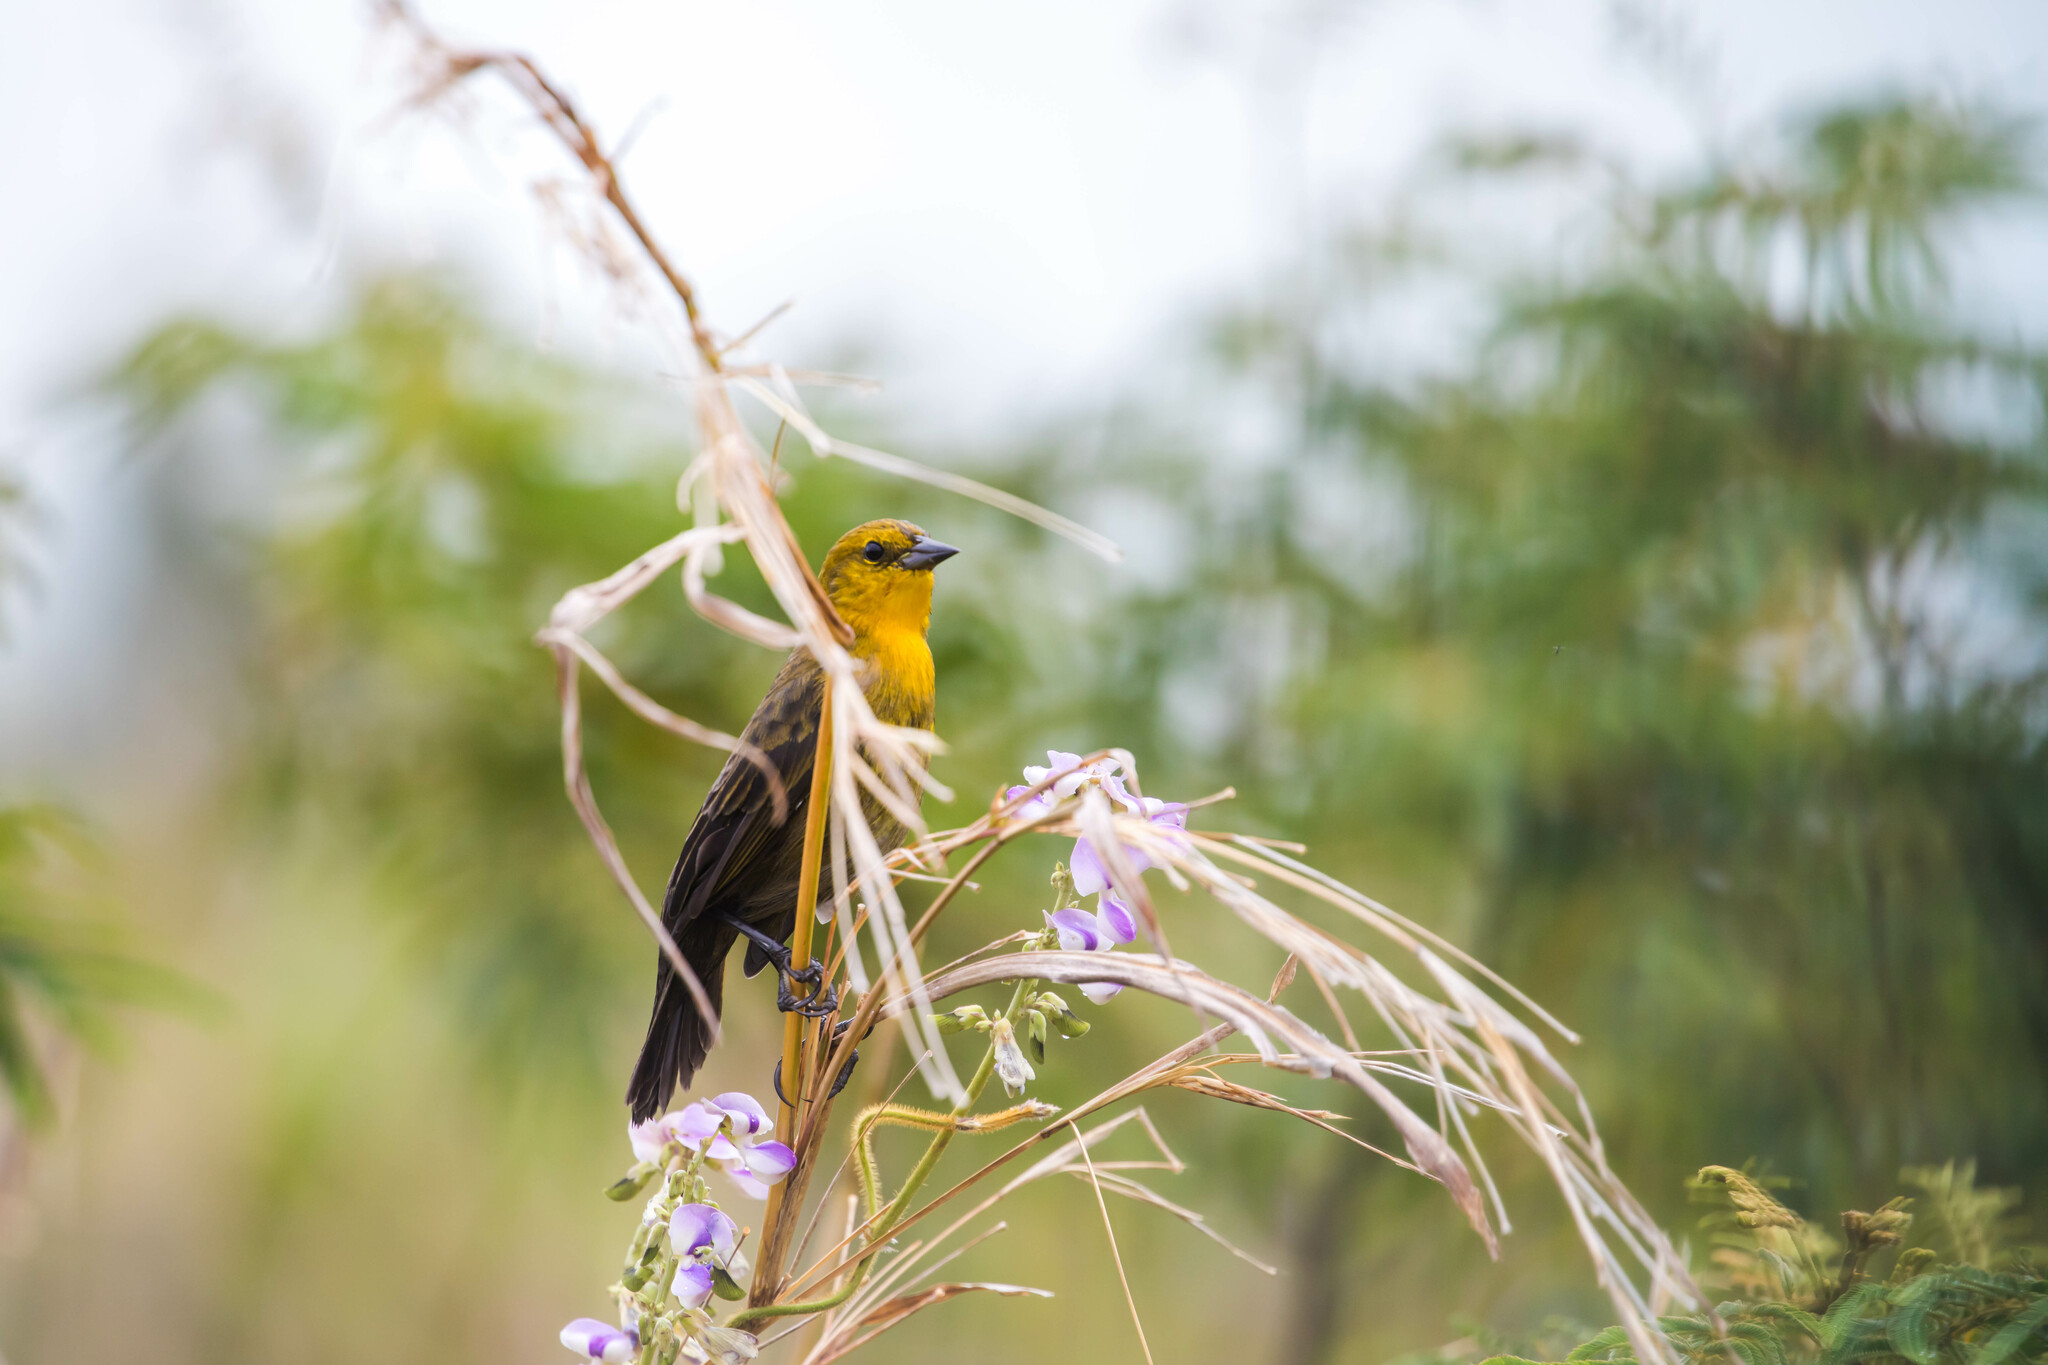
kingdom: Animalia
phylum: Chordata
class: Aves
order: Passeriformes
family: Icteridae
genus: Chrysomus
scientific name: Chrysomus icterocephalus
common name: Yellow-hooded blackbird
